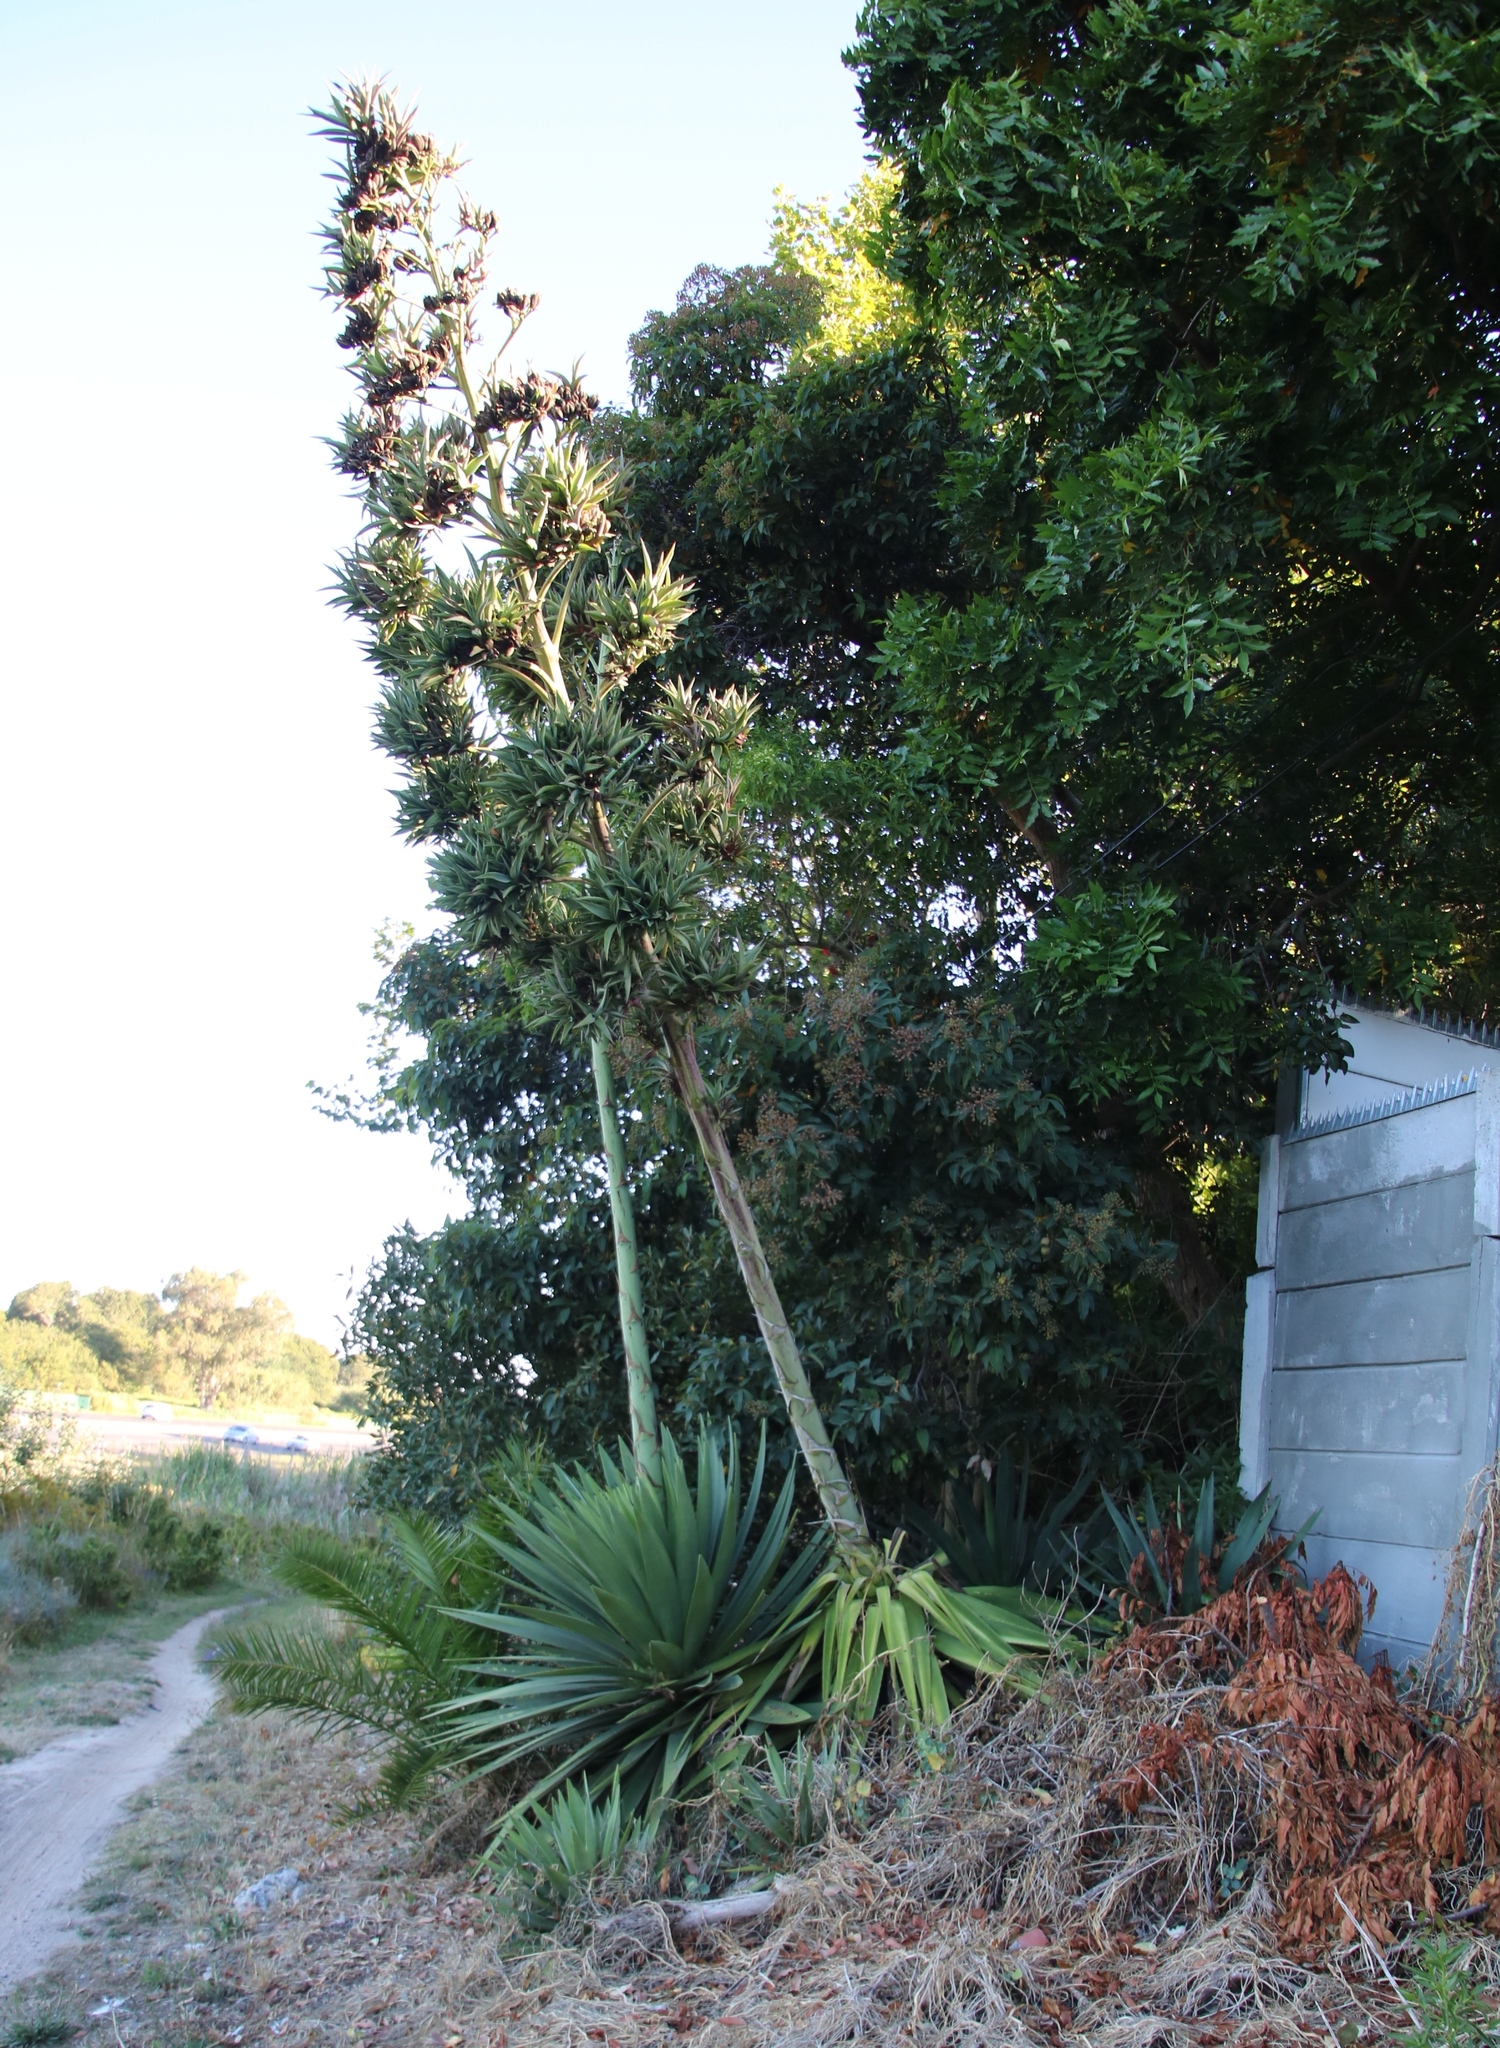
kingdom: Plantae
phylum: Tracheophyta
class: Liliopsida
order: Asparagales
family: Asparagaceae
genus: Agave
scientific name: Agave angustifolia
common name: Mescal agave
